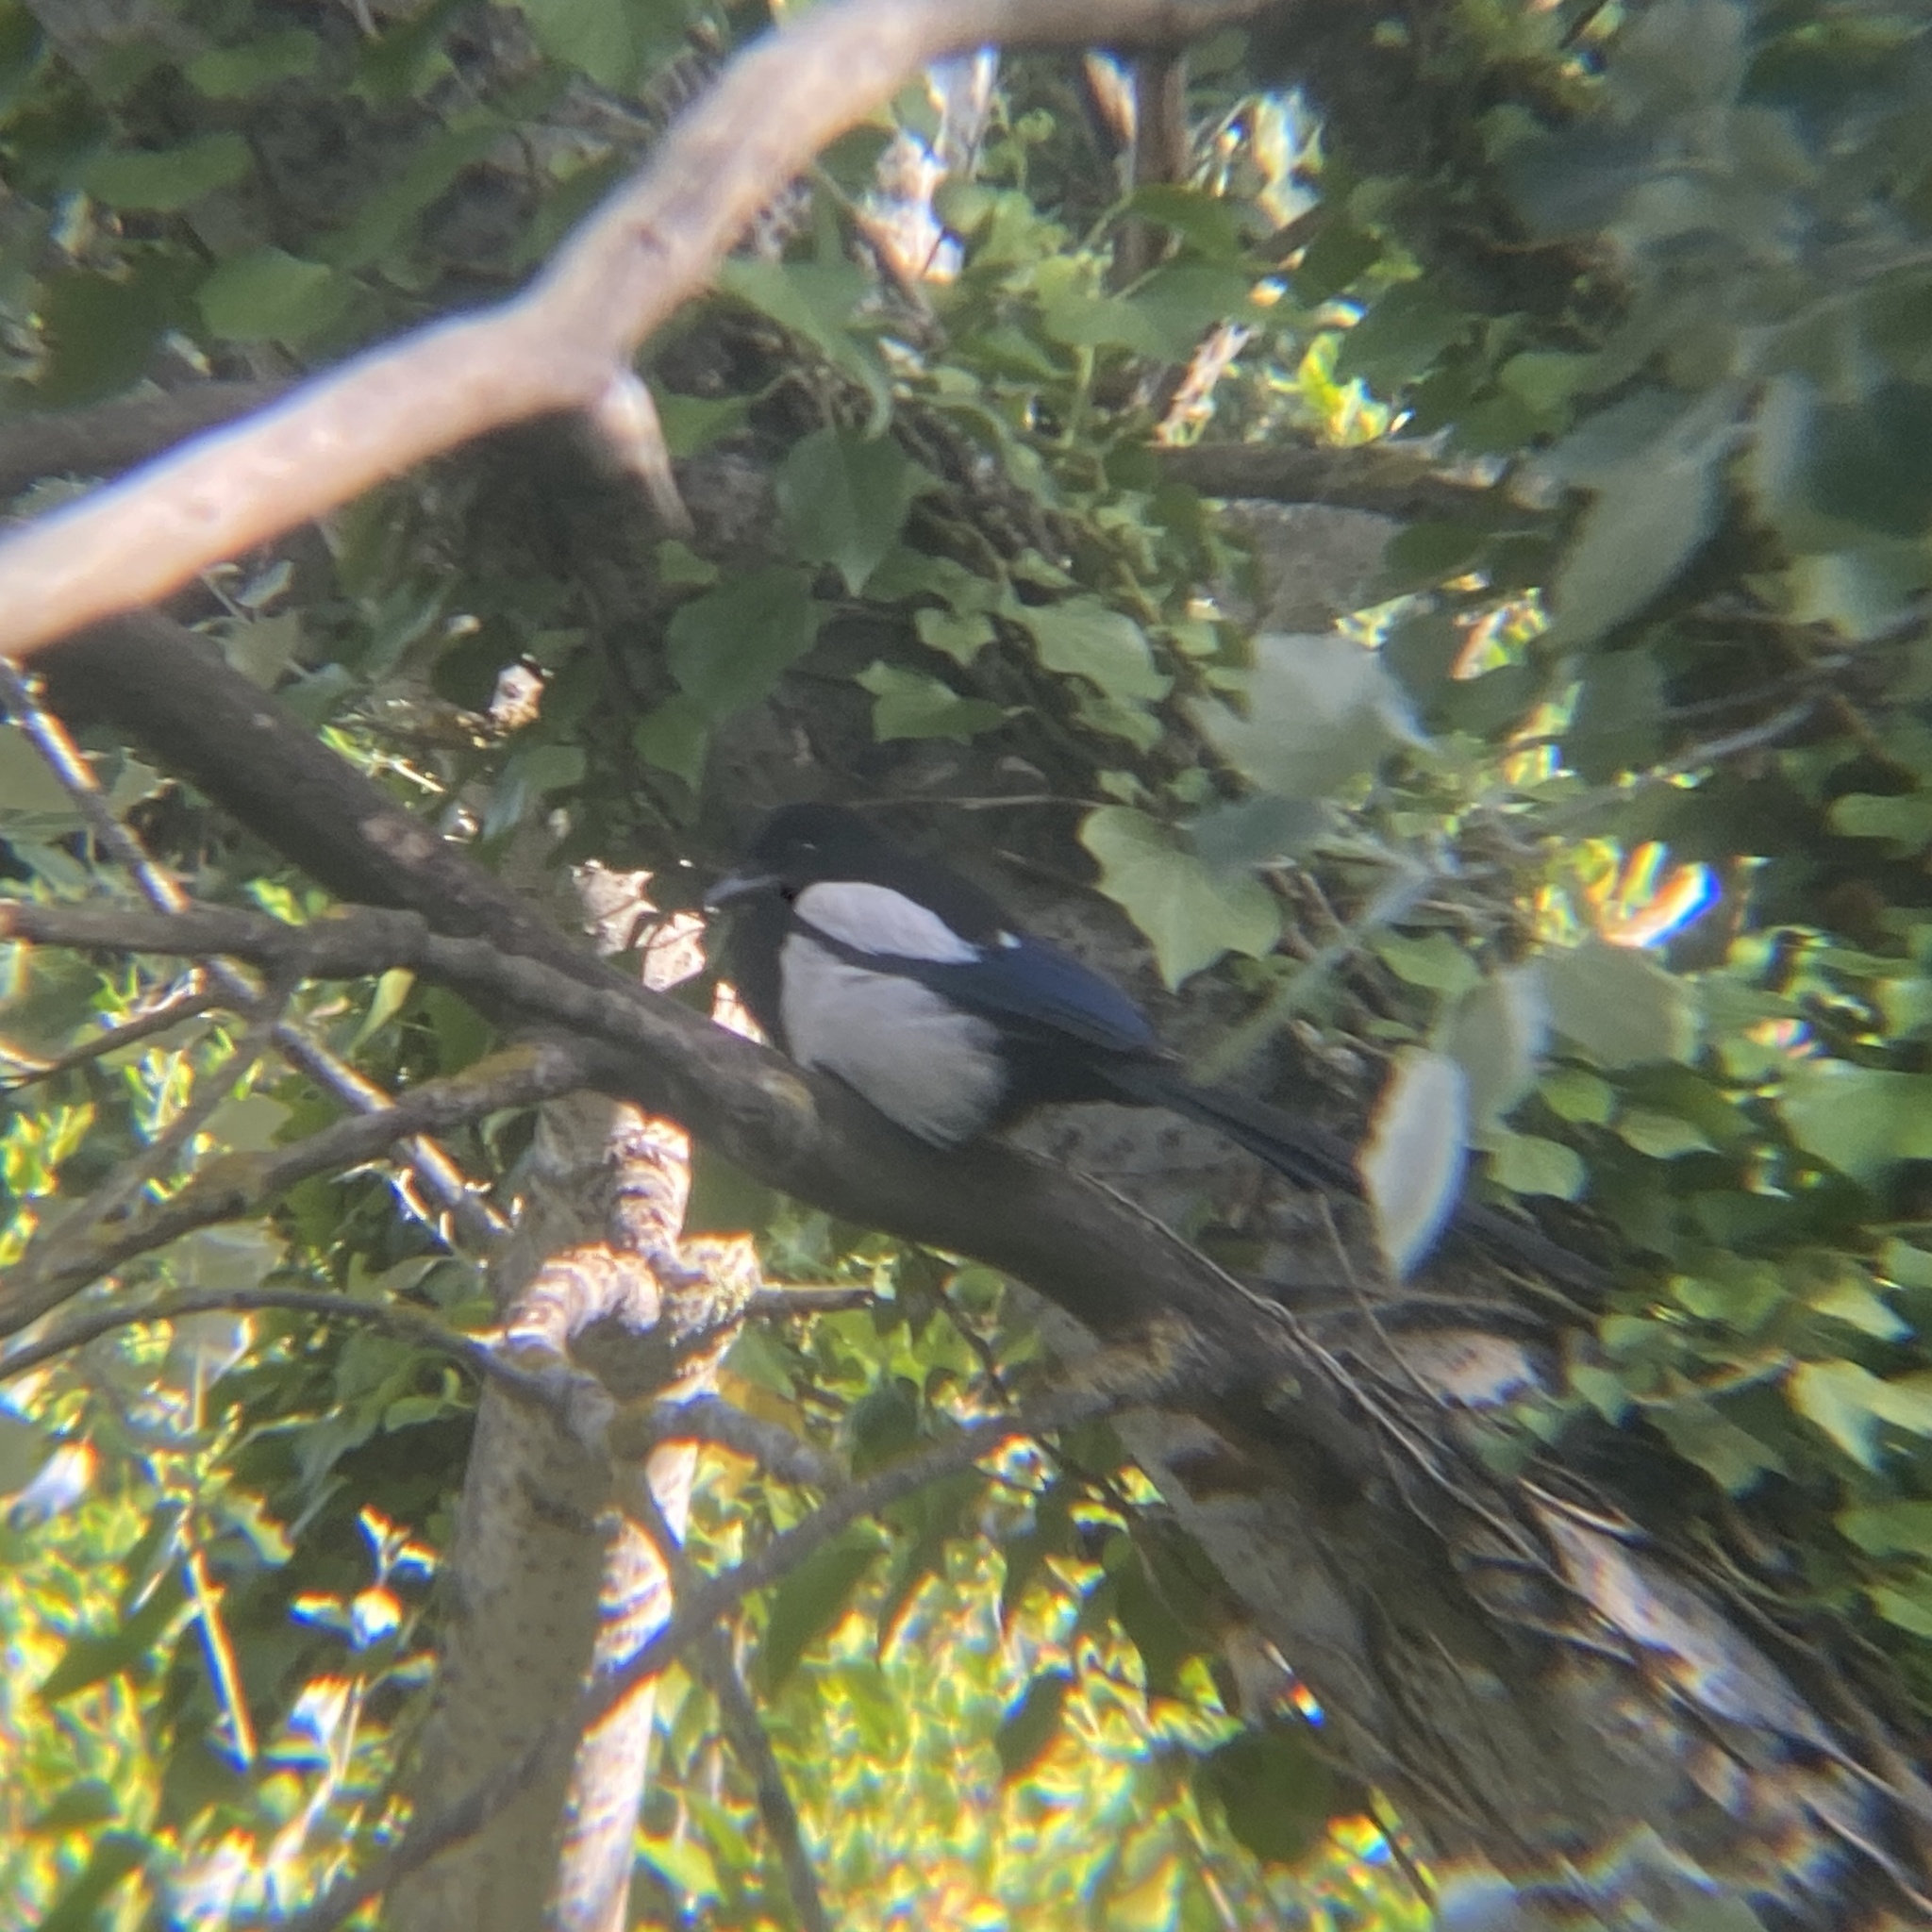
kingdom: Animalia
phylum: Chordata
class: Aves
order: Passeriformes
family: Corvidae
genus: Pica
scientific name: Pica pica
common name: Eurasian magpie
